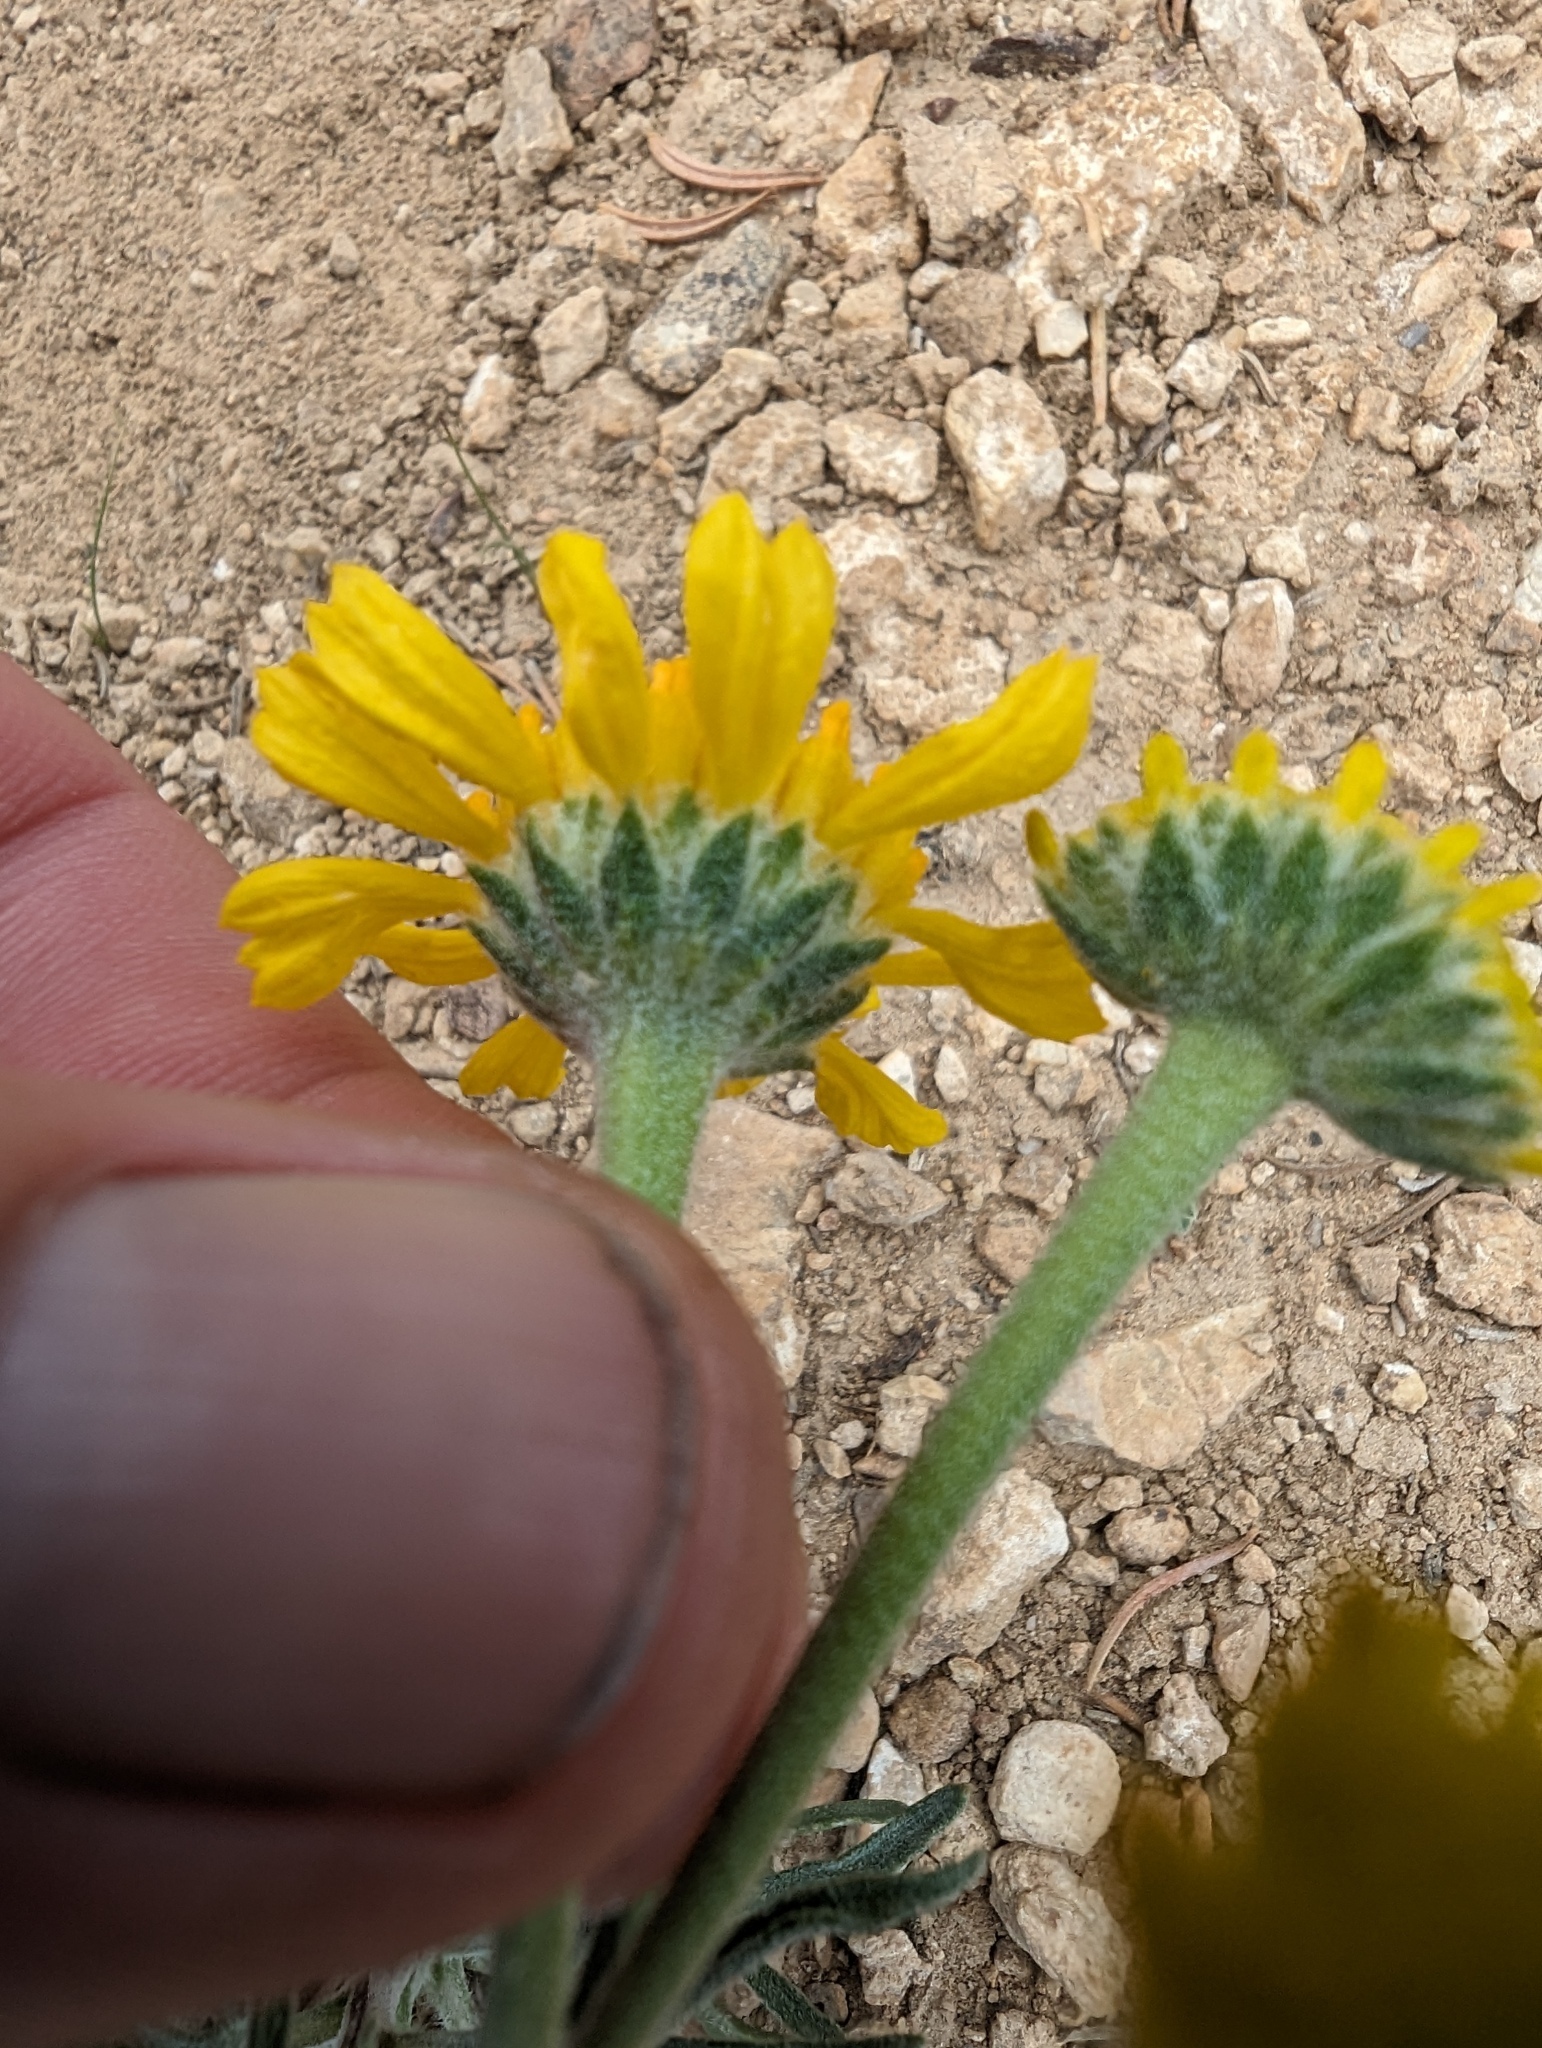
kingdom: Plantae
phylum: Tracheophyta
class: Magnoliopsida
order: Asterales
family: Asteraceae
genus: Hymenoxys
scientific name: Hymenoxys cooperi
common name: Cooper's bitterweed
